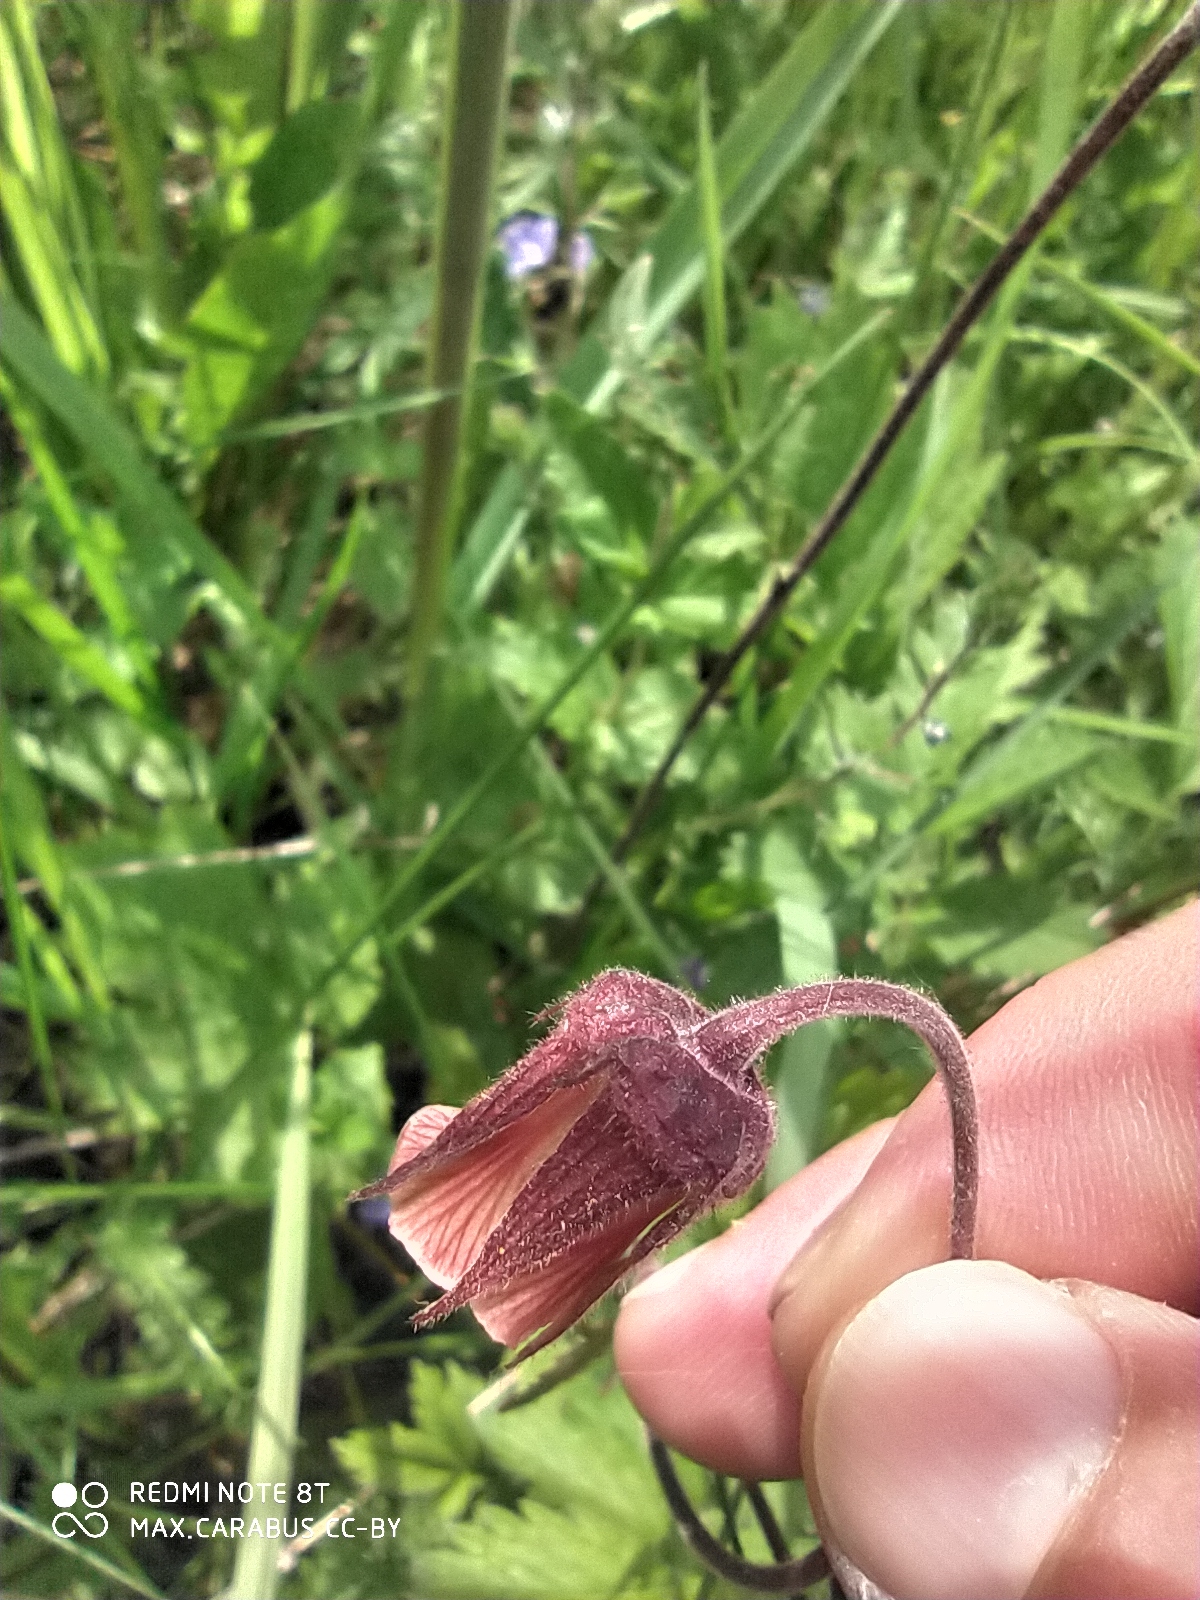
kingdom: Plantae
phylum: Tracheophyta
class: Magnoliopsida
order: Rosales
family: Rosaceae
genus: Geum
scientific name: Geum rivale
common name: Water avens
